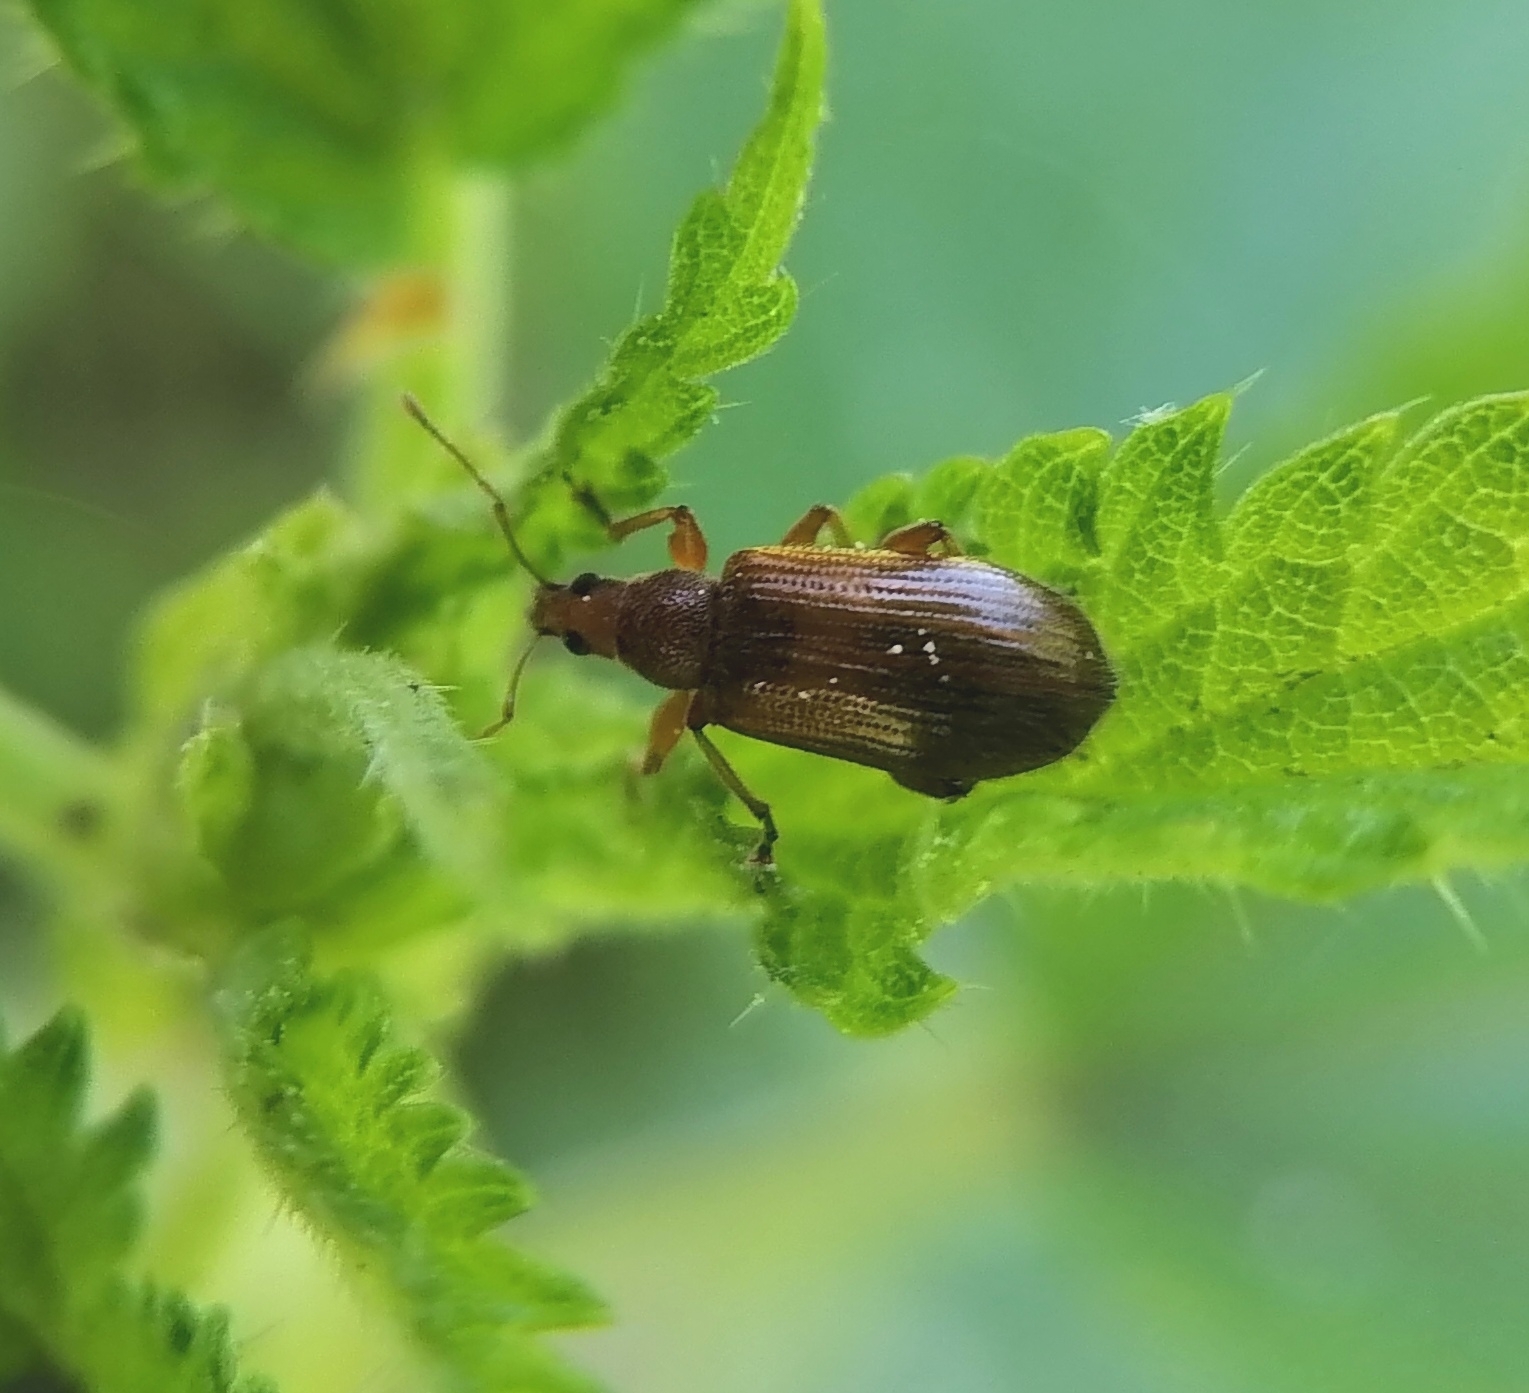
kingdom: Animalia
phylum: Arthropoda
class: Insecta
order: Coleoptera
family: Curculionidae
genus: Phyllobius
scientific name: Phyllobius oblongus
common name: Brown leaf weevil
